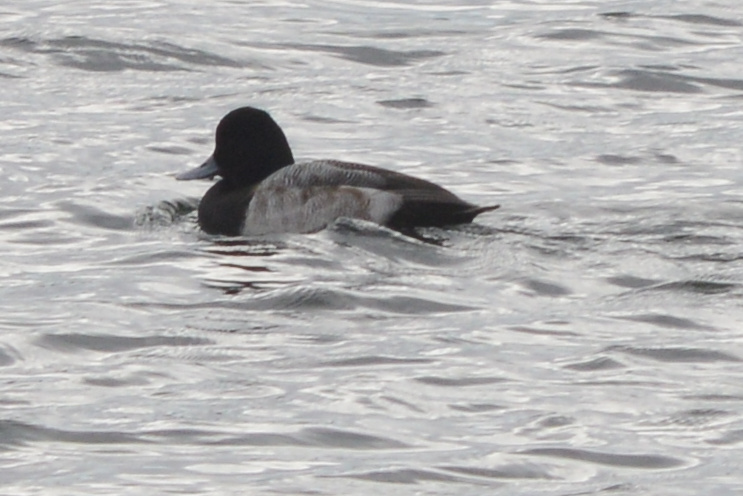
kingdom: Animalia
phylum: Chordata
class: Aves
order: Anseriformes
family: Anatidae
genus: Aythya
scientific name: Aythya affinis
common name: Lesser scaup
